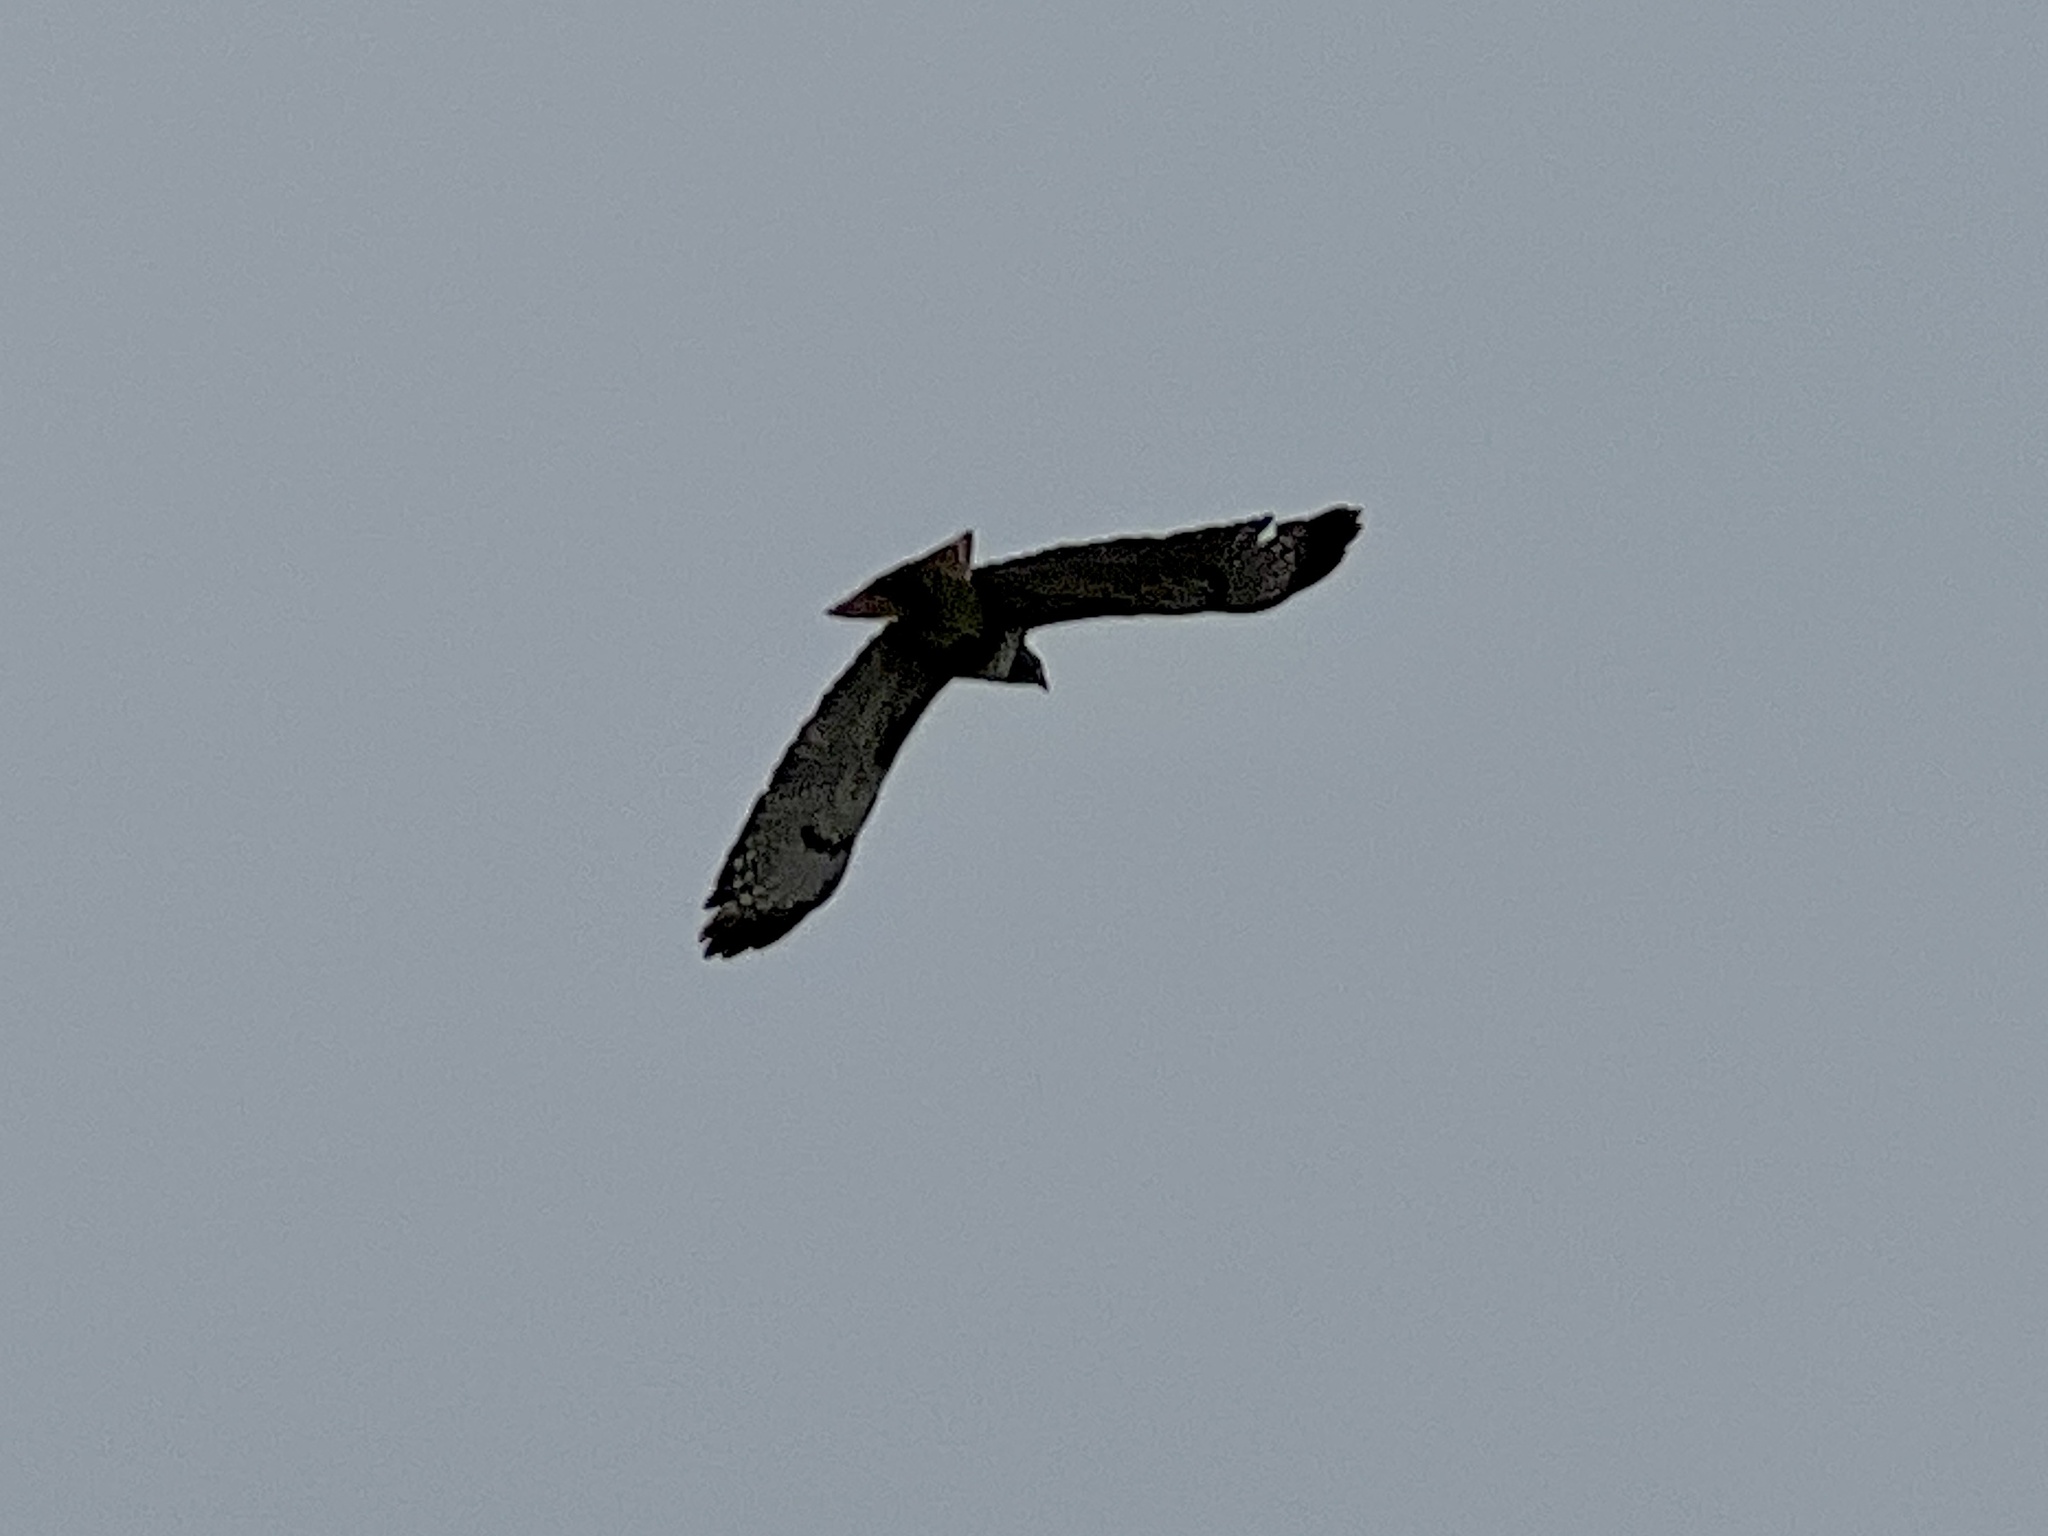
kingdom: Animalia
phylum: Chordata
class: Aves
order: Accipitriformes
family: Accipitridae
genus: Buteo
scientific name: Buteo jamaicensis
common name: Red-tailed hawk
